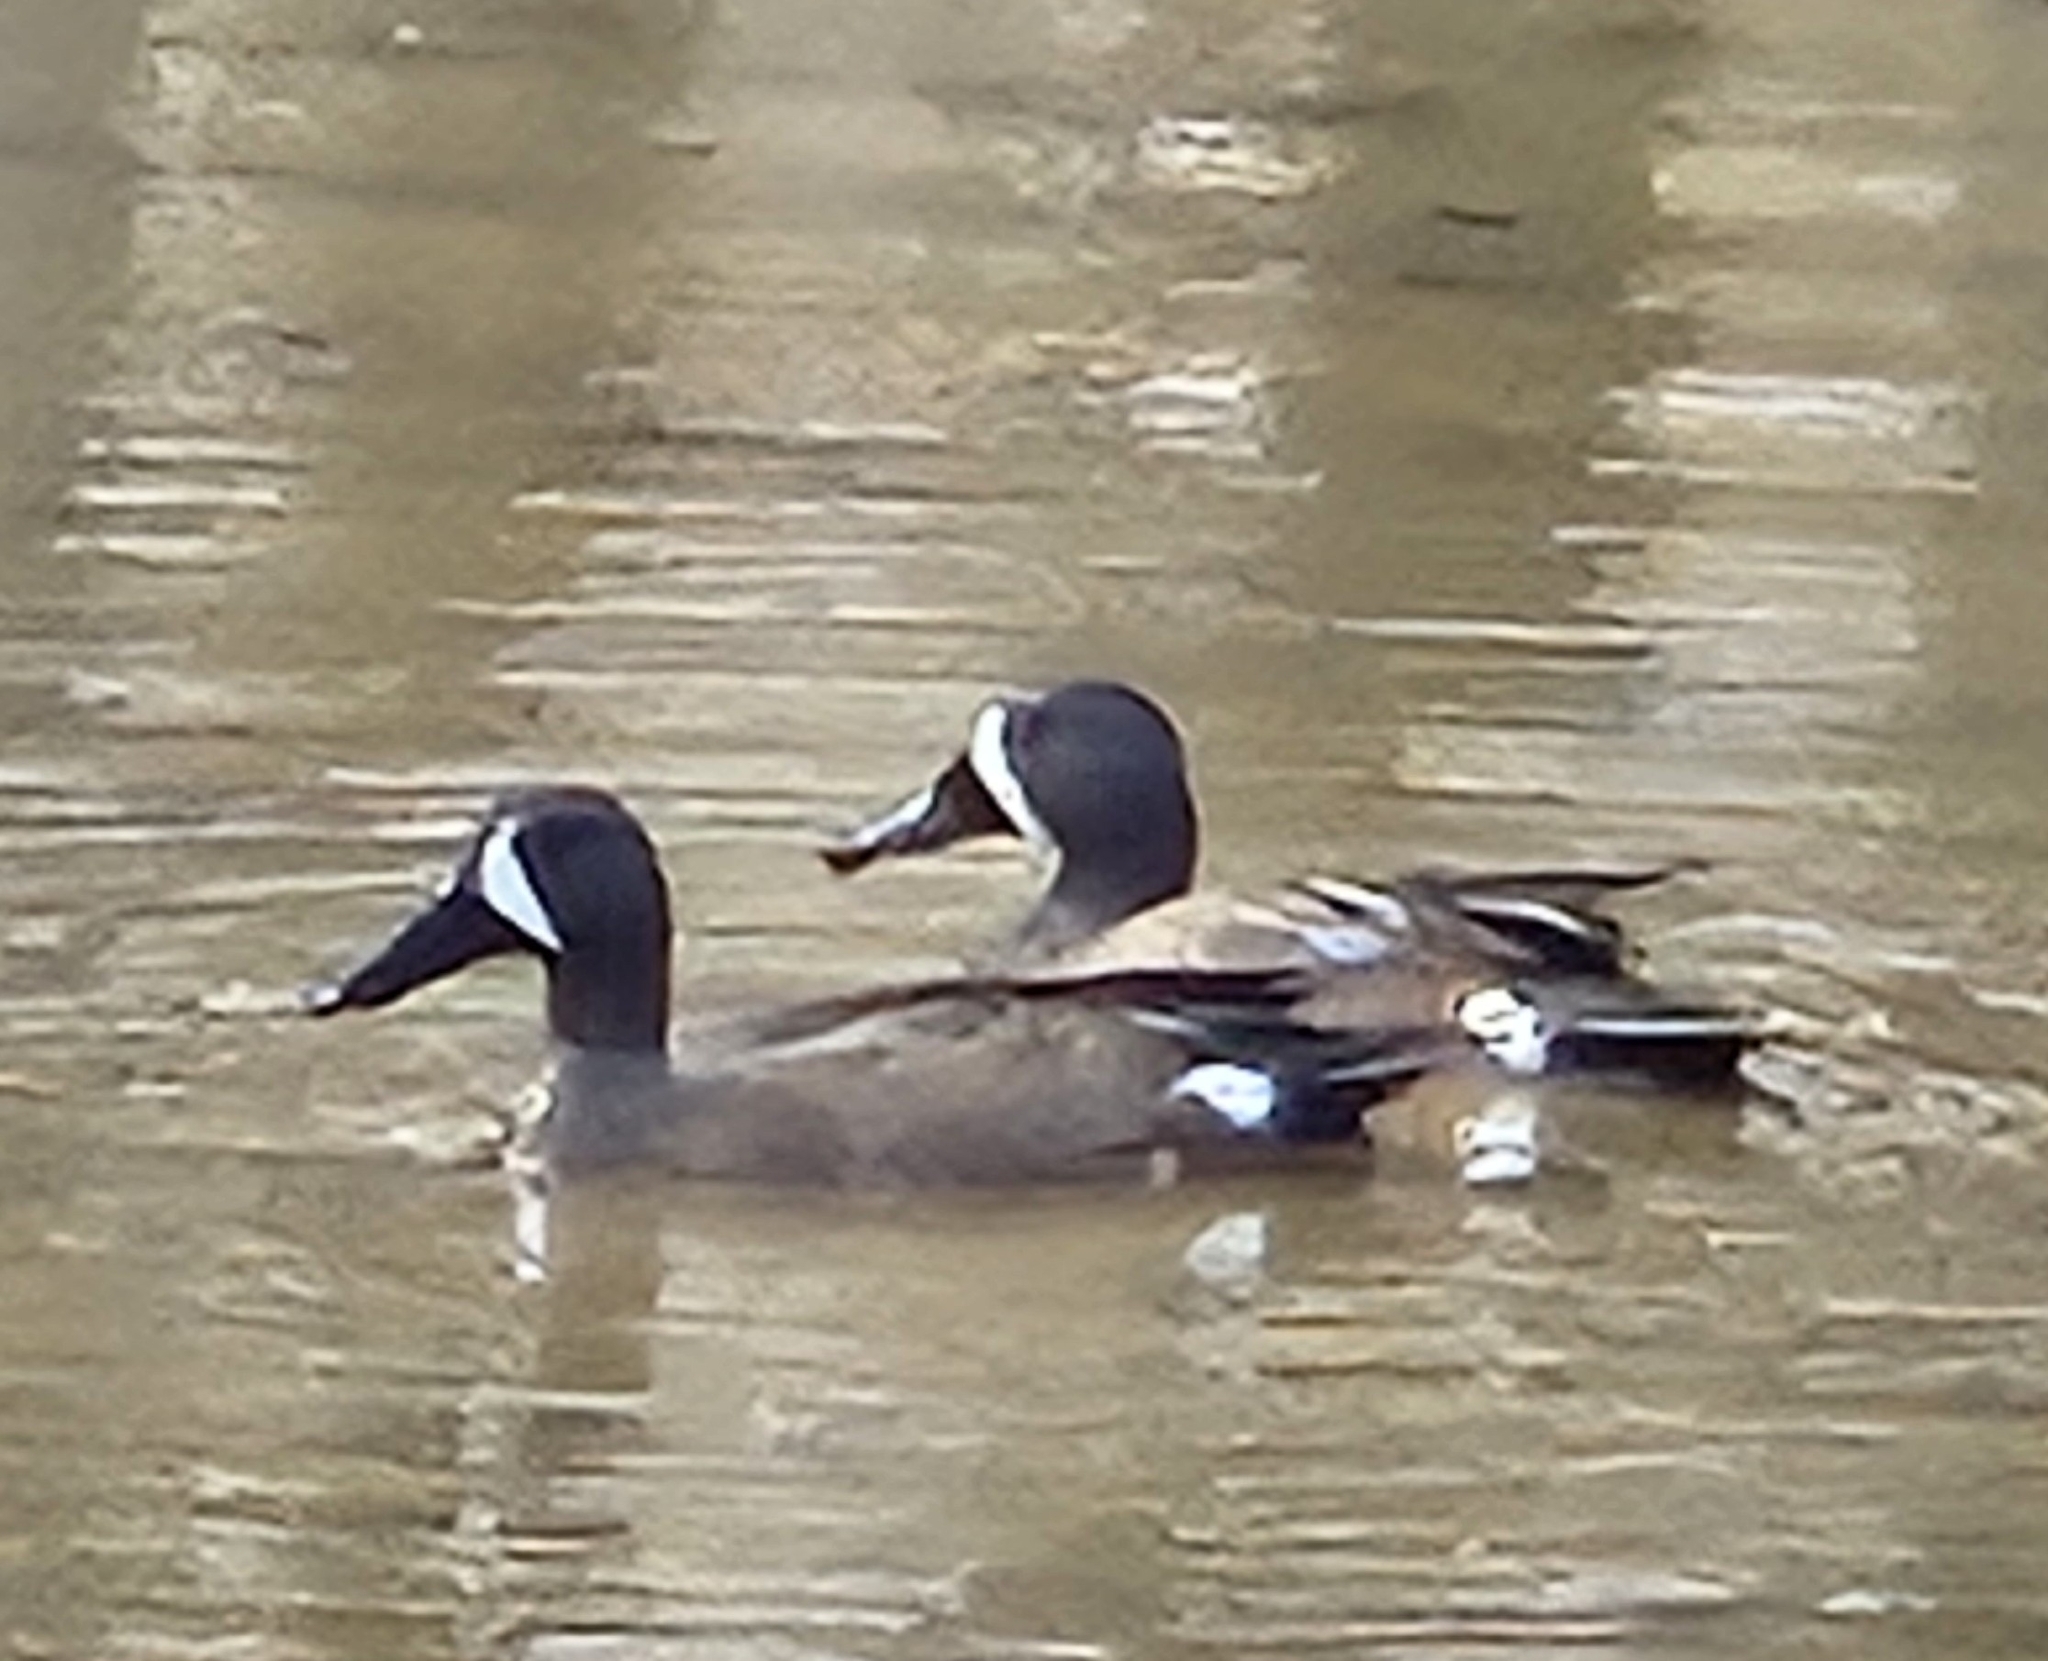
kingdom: Animalia
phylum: Chordata
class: Aves
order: Anseriformes
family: Anatidae
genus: Spatula
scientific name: Spatula discors
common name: Blue-winged teal
